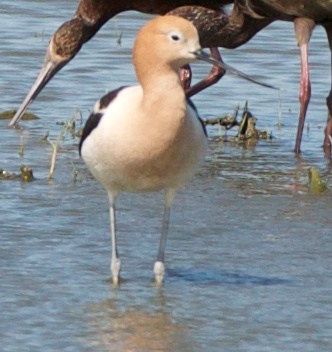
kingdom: Animalia
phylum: Chordata
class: Aves
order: Charadriiformes
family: Recurvirostridae
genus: Recurvirostra
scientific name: Recurvirostra americana
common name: American avocet
